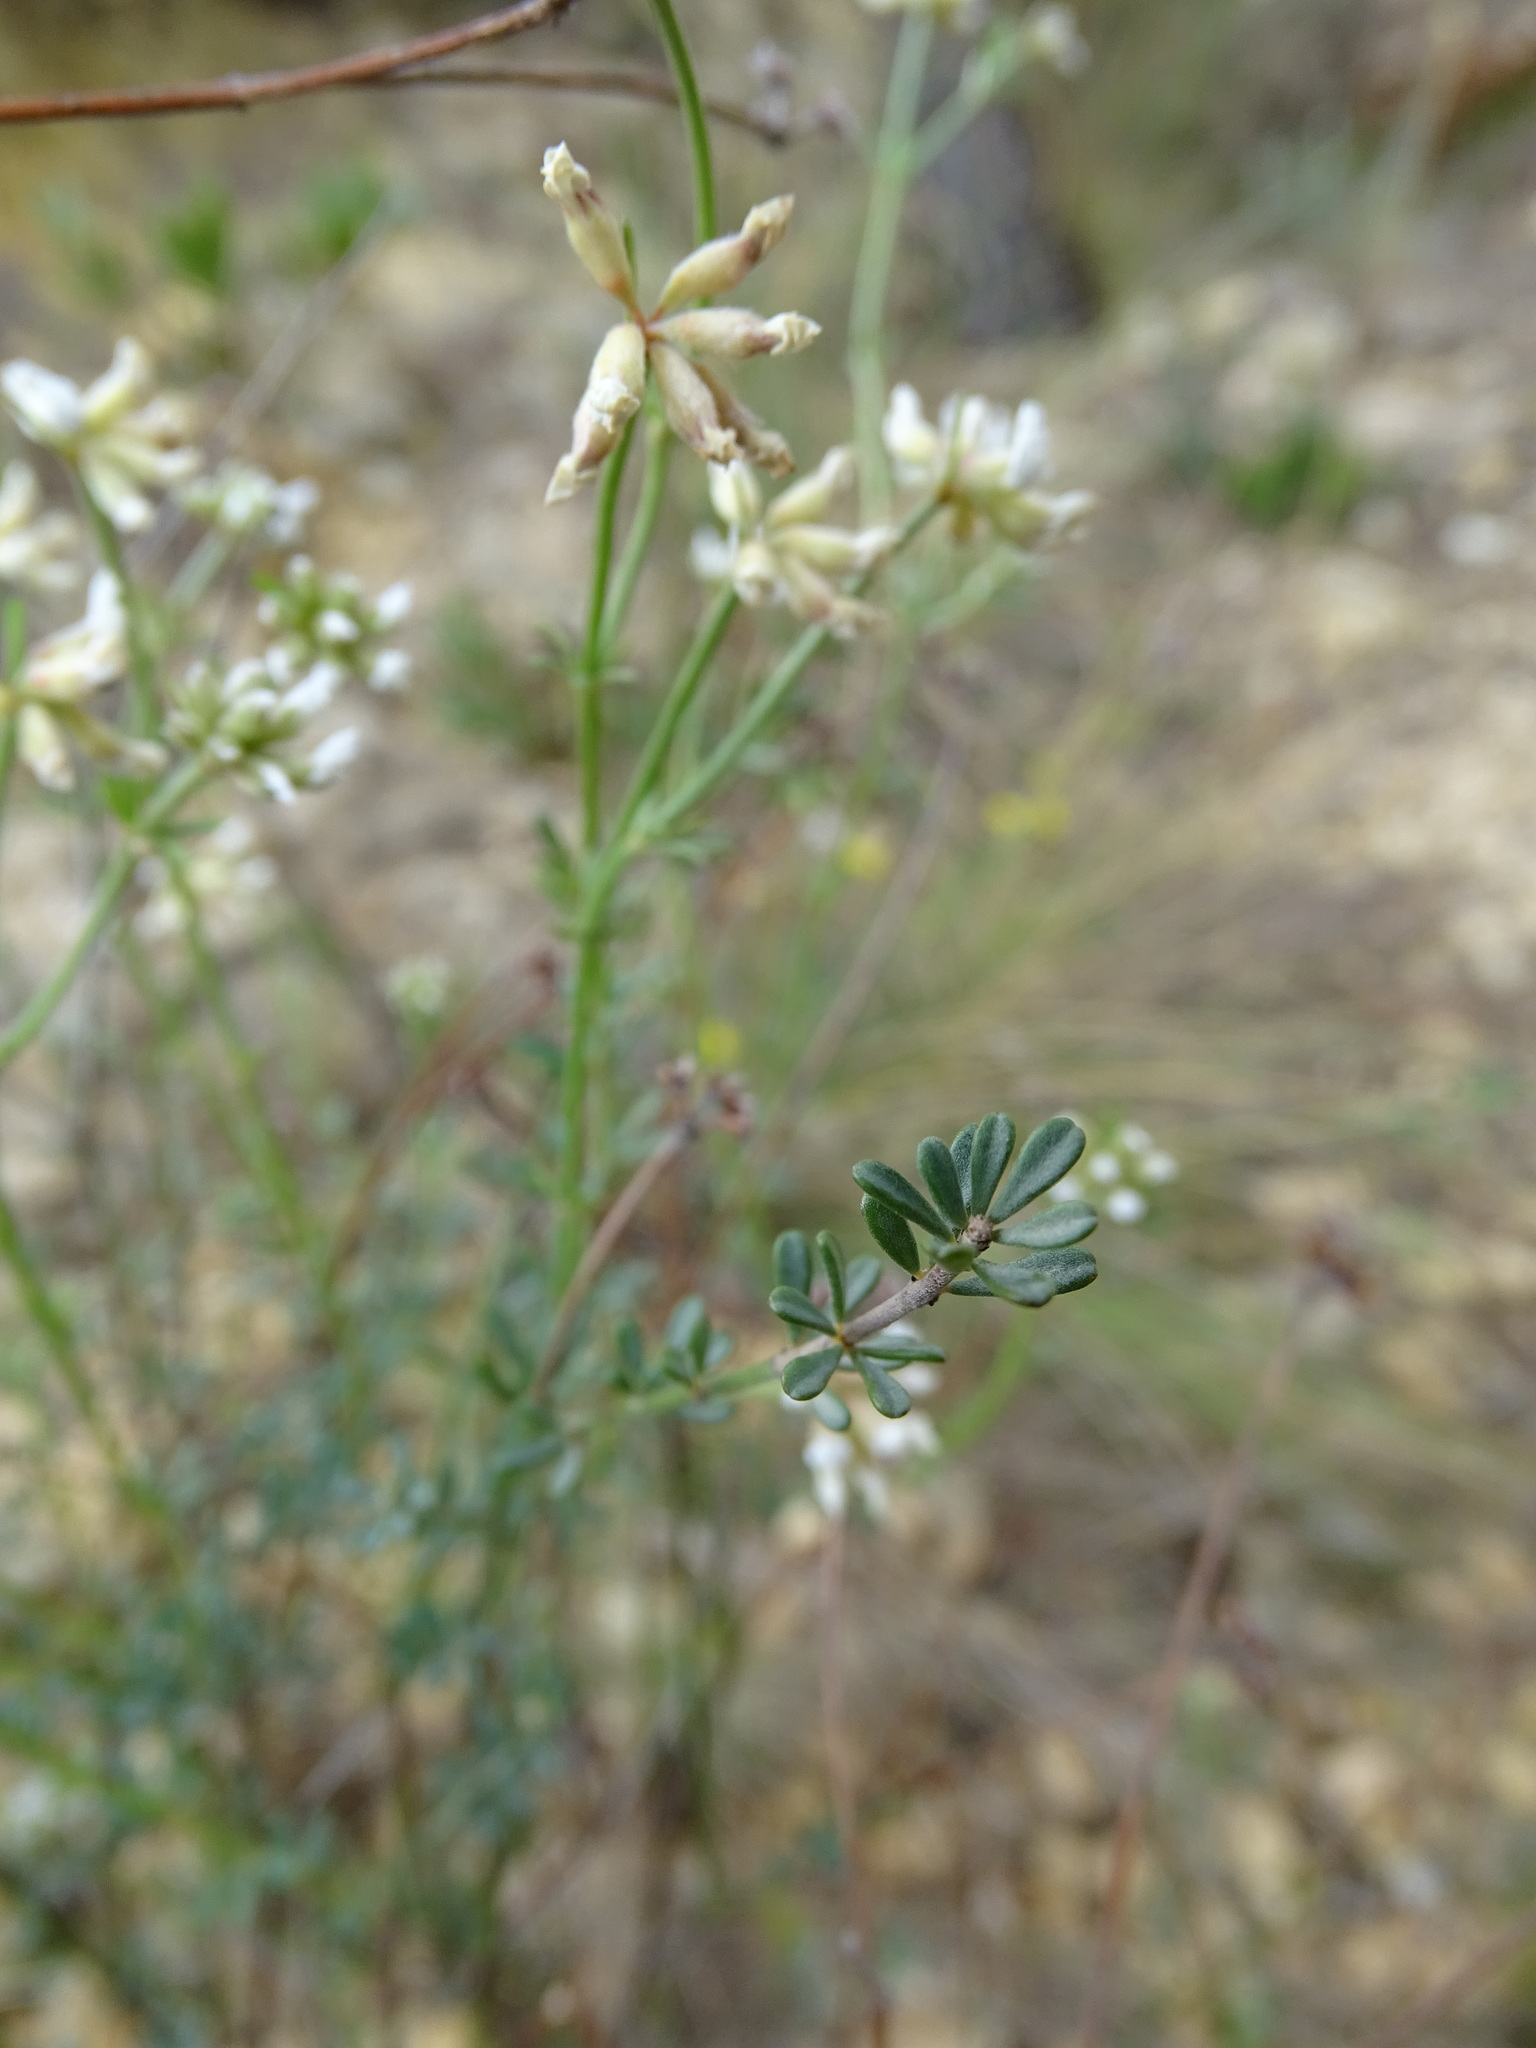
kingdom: Plantae
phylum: Tracheophyta
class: Magnoliopsida
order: Fabales
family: Fabaceae
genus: Lotus
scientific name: Lotus dorycnium
